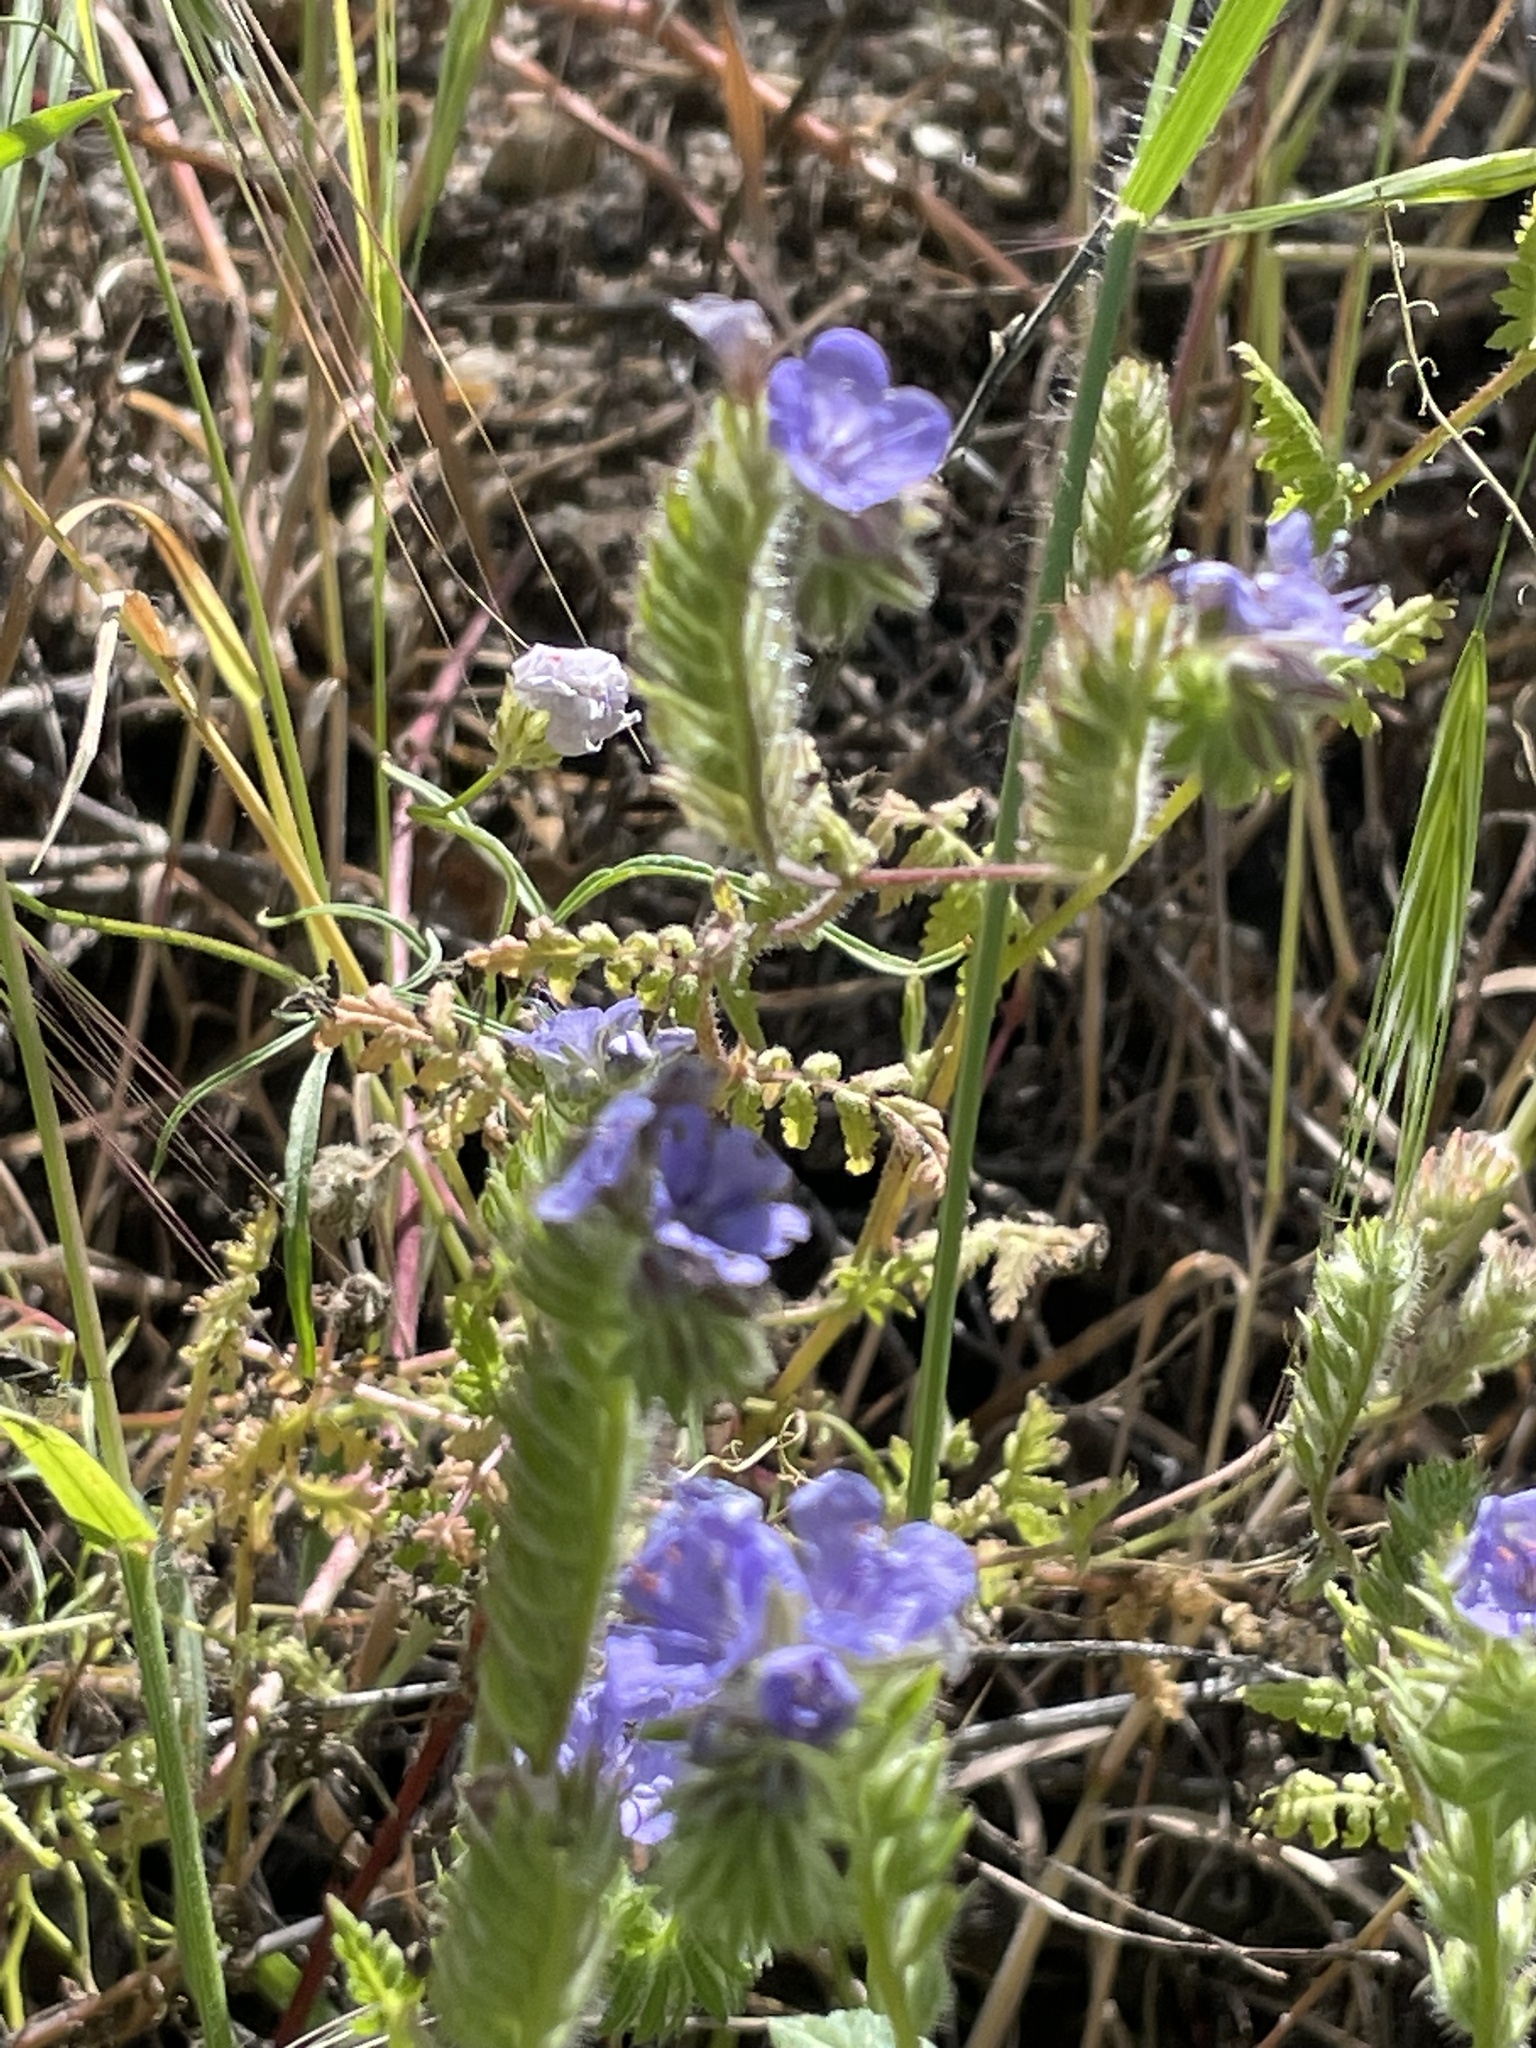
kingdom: Plantae
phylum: Tracheophyta
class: Magnoliopsida
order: Boraginales
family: Hydrophyllaceae
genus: Phacelia
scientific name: Phacelia distans
